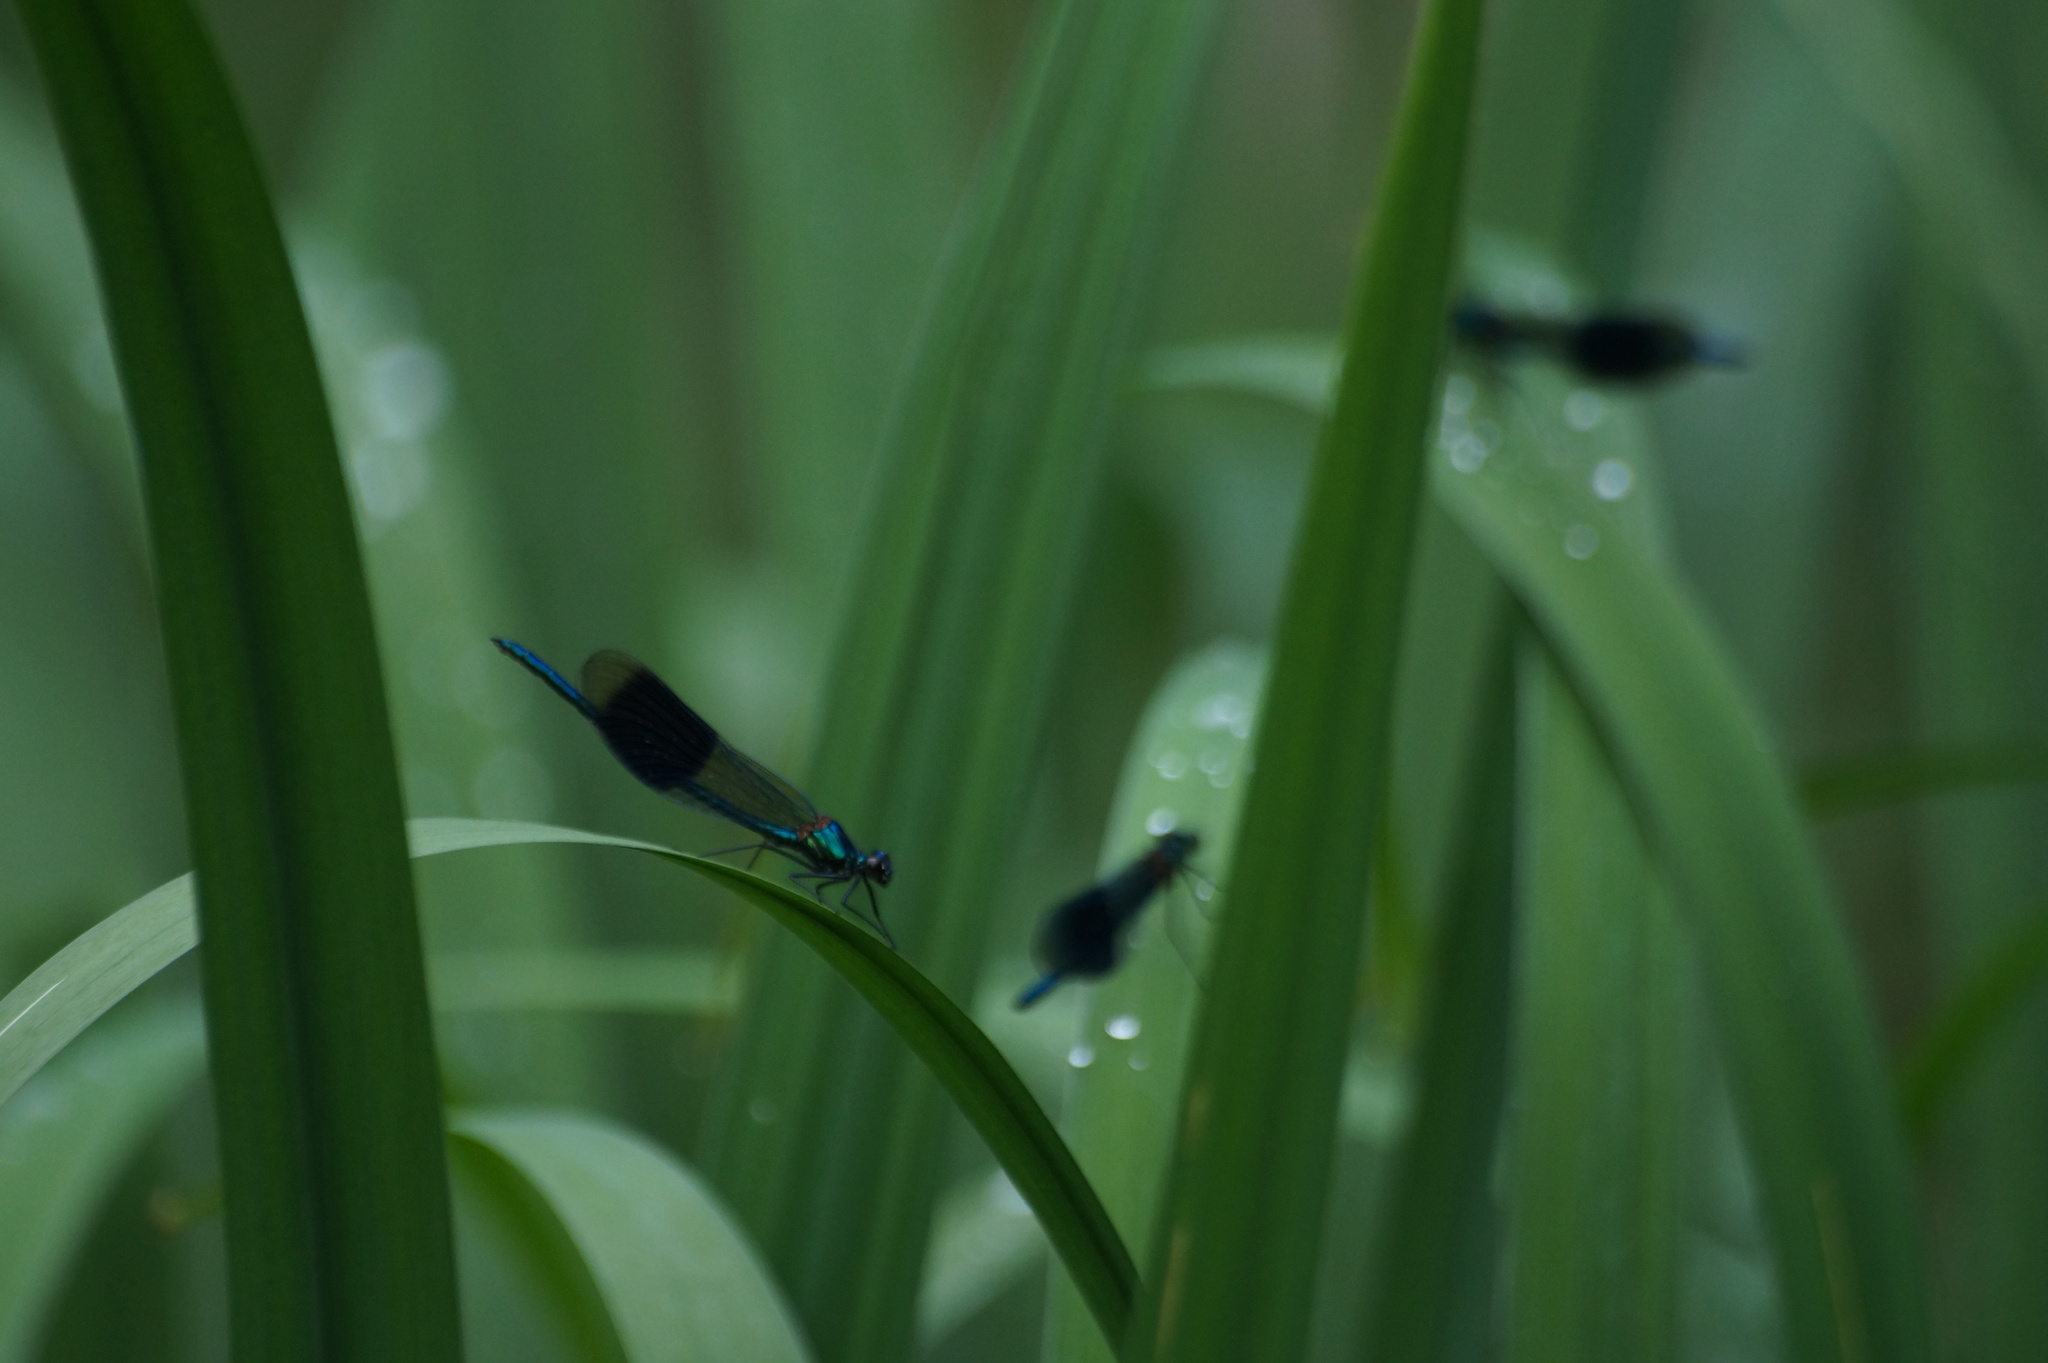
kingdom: Animalia
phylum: Arthropoda
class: Insecta
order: Odonata
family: Calopterygidae
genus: Calopteryx
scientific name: Calopteryx splendens
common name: Banded demoiselle
